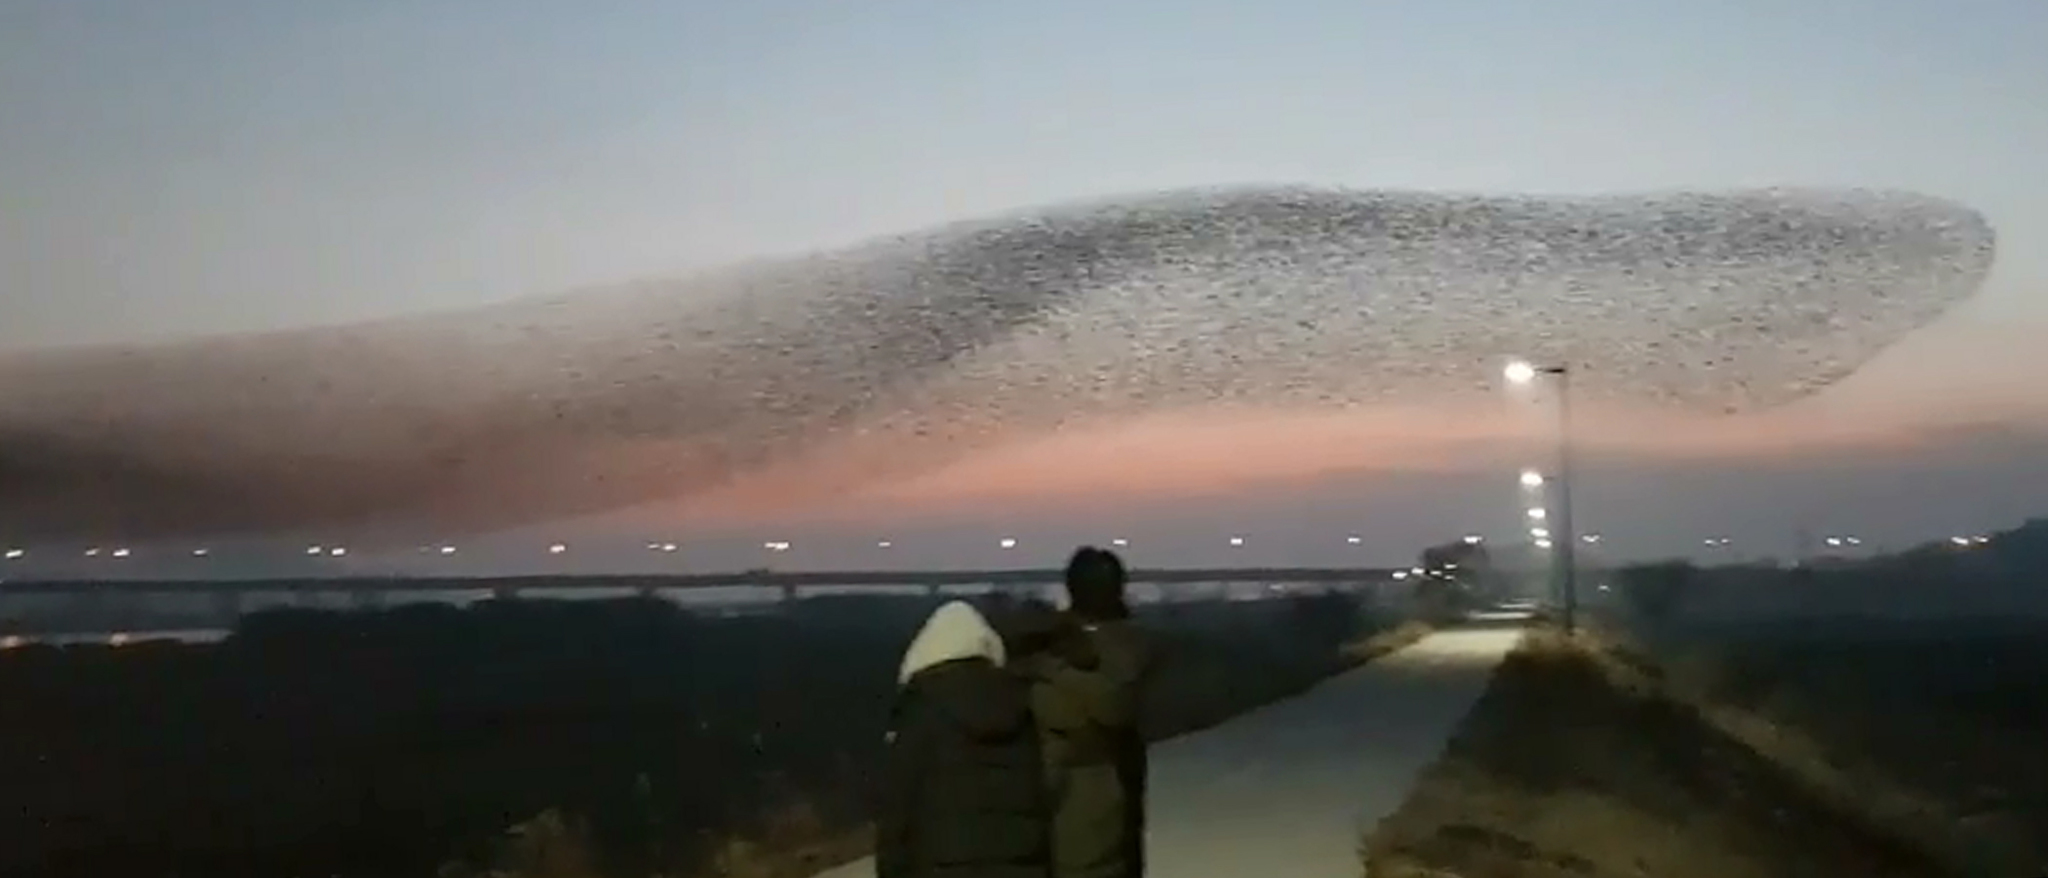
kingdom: Animalia
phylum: Chordata
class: Aves
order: Anseriformes
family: Anatidae
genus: Sibirionetta
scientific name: Sibirionetta formosa
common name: Baikal teal
